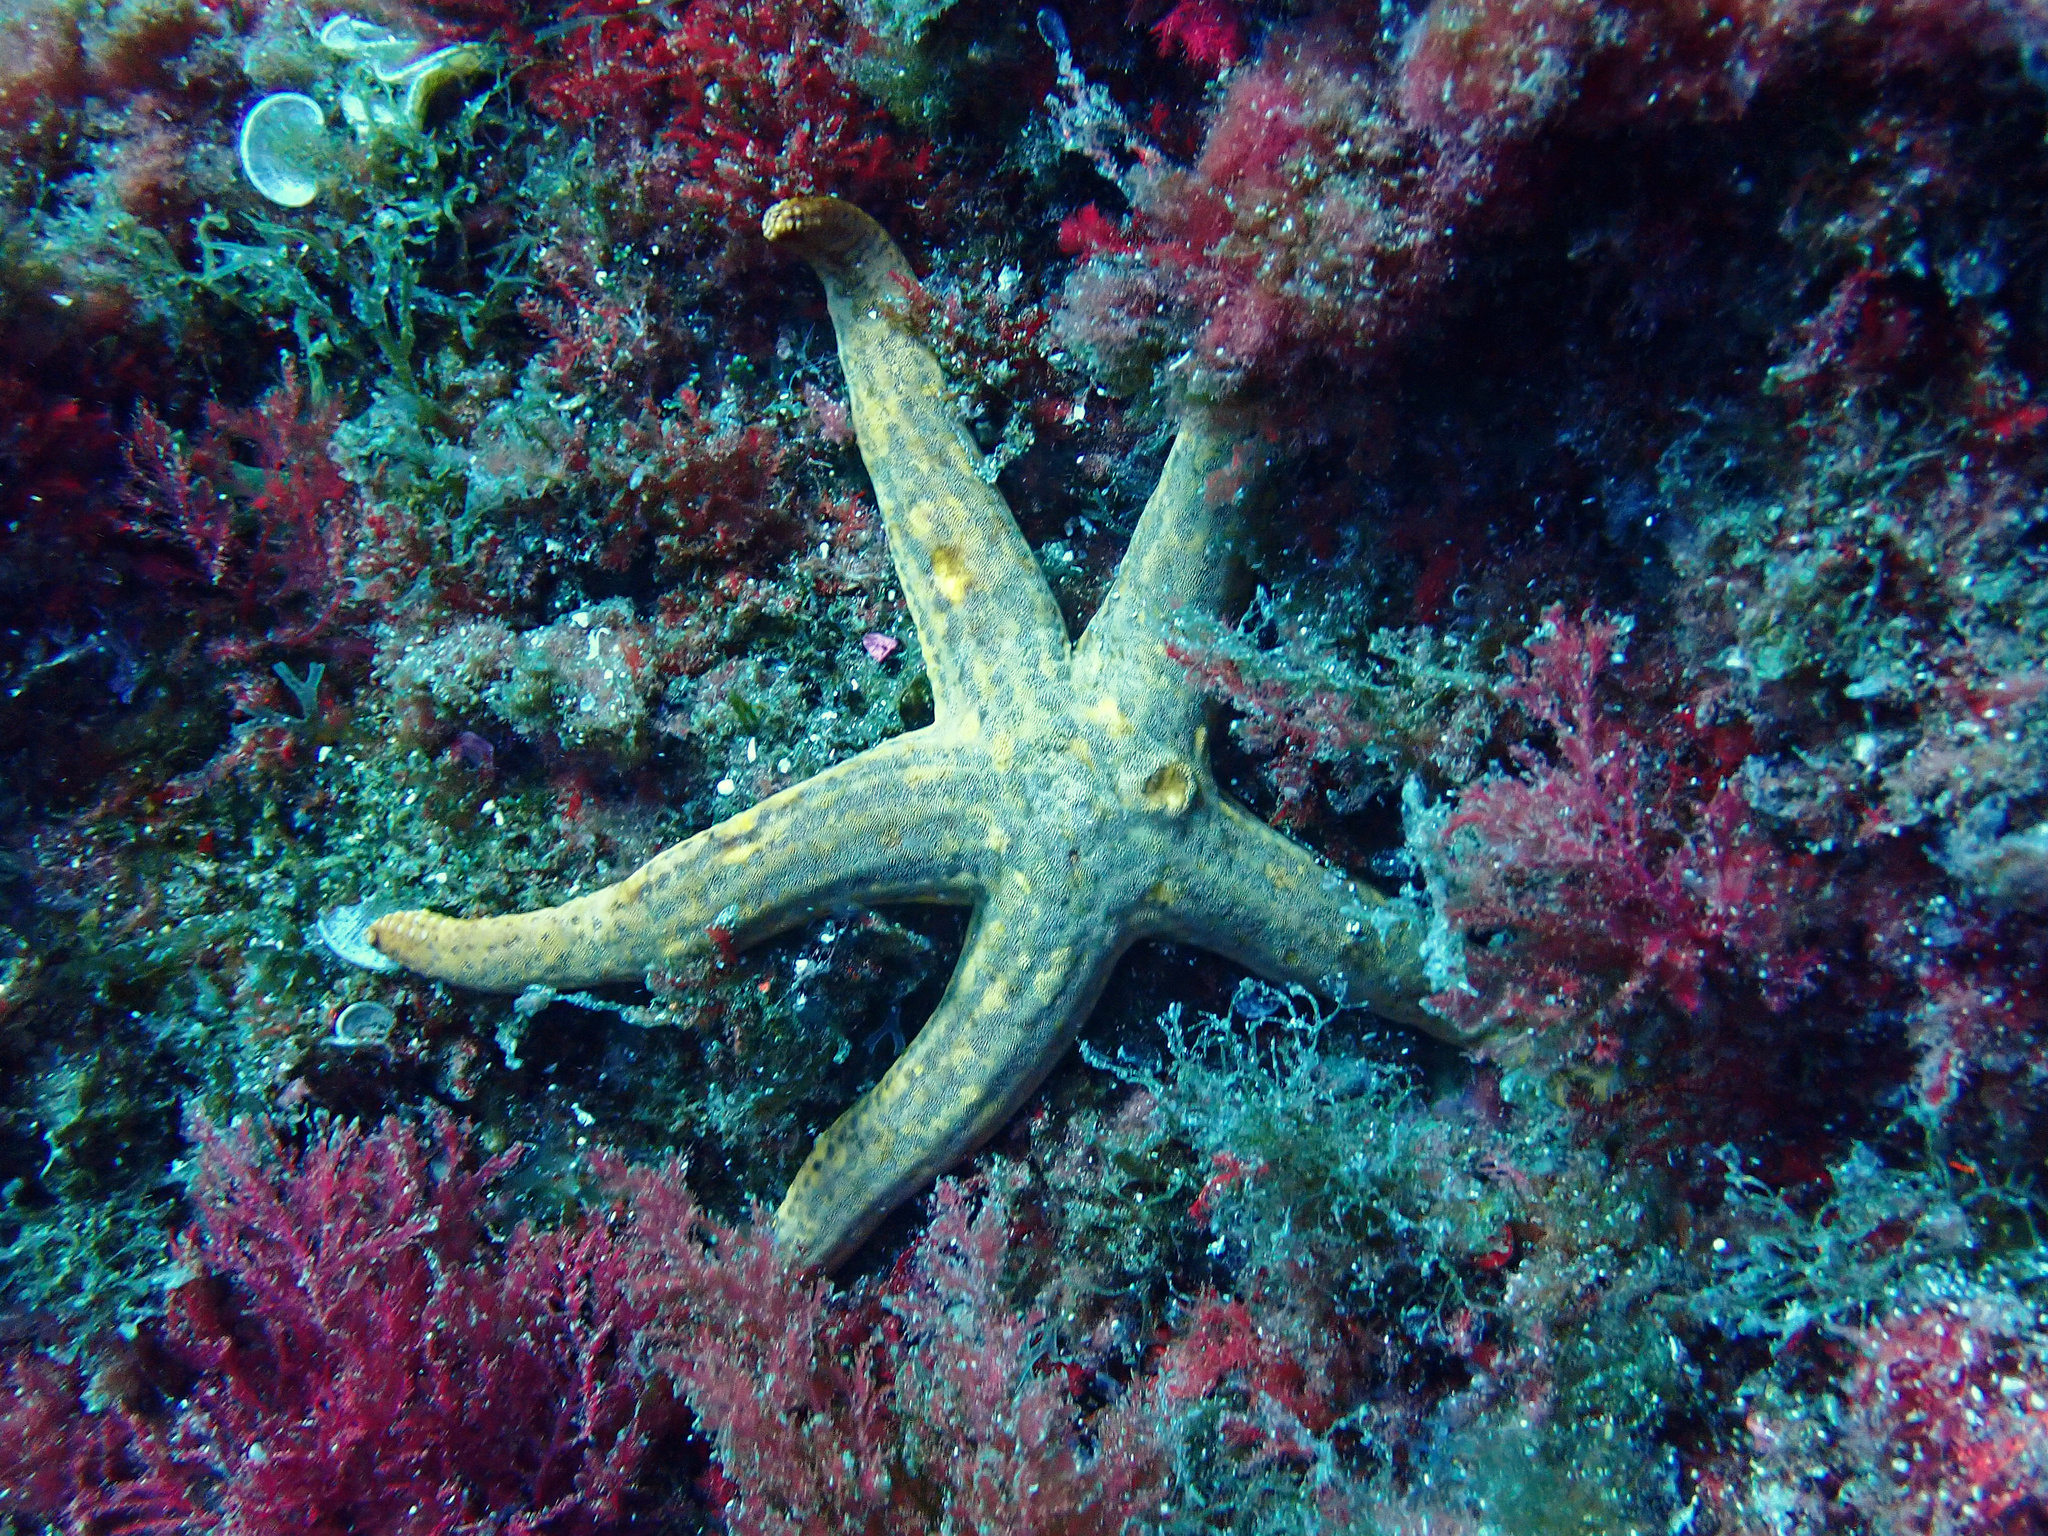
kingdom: Animalia
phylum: Echinodermata
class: Asteroidea
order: Valvatida
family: Ophidiasteridae
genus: Hacelia
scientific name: Hacelia attenuata
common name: Smooth starfish
